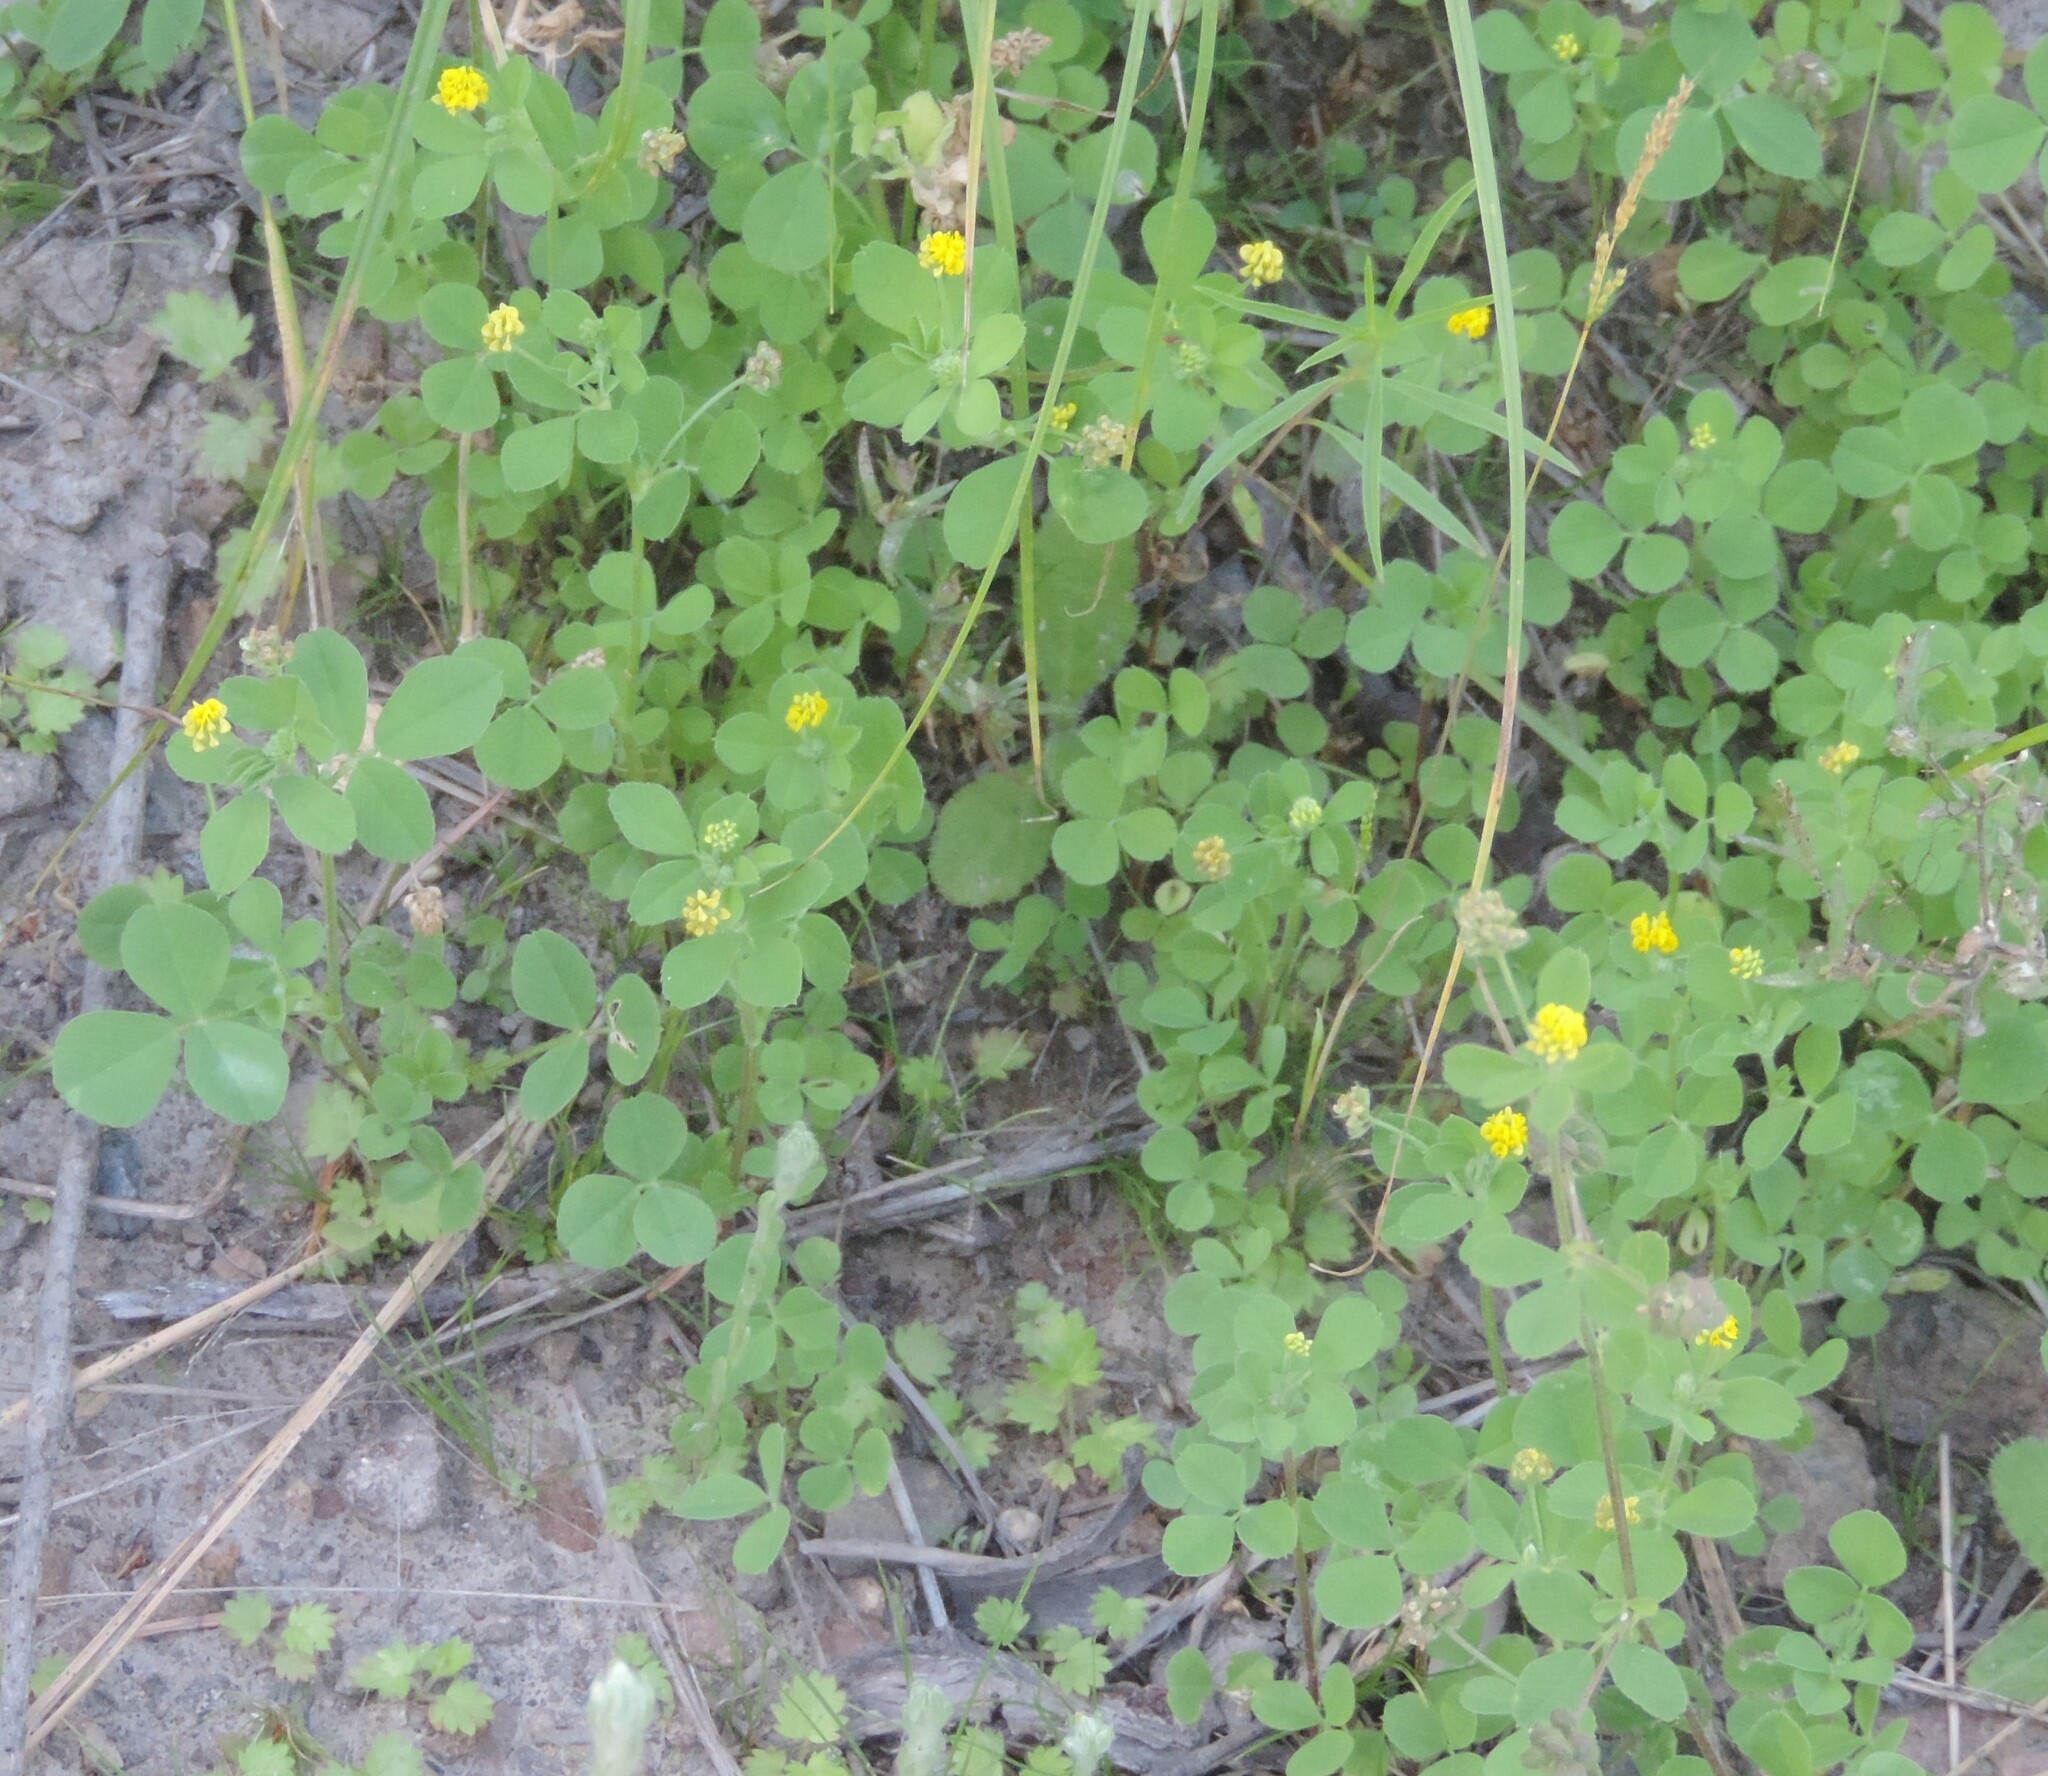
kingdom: Plantae
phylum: Tracheophyta
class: Magnoliopsida
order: Fabales
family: Fabaceae
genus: Medicago
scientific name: Medicago lupulina
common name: Black medick
